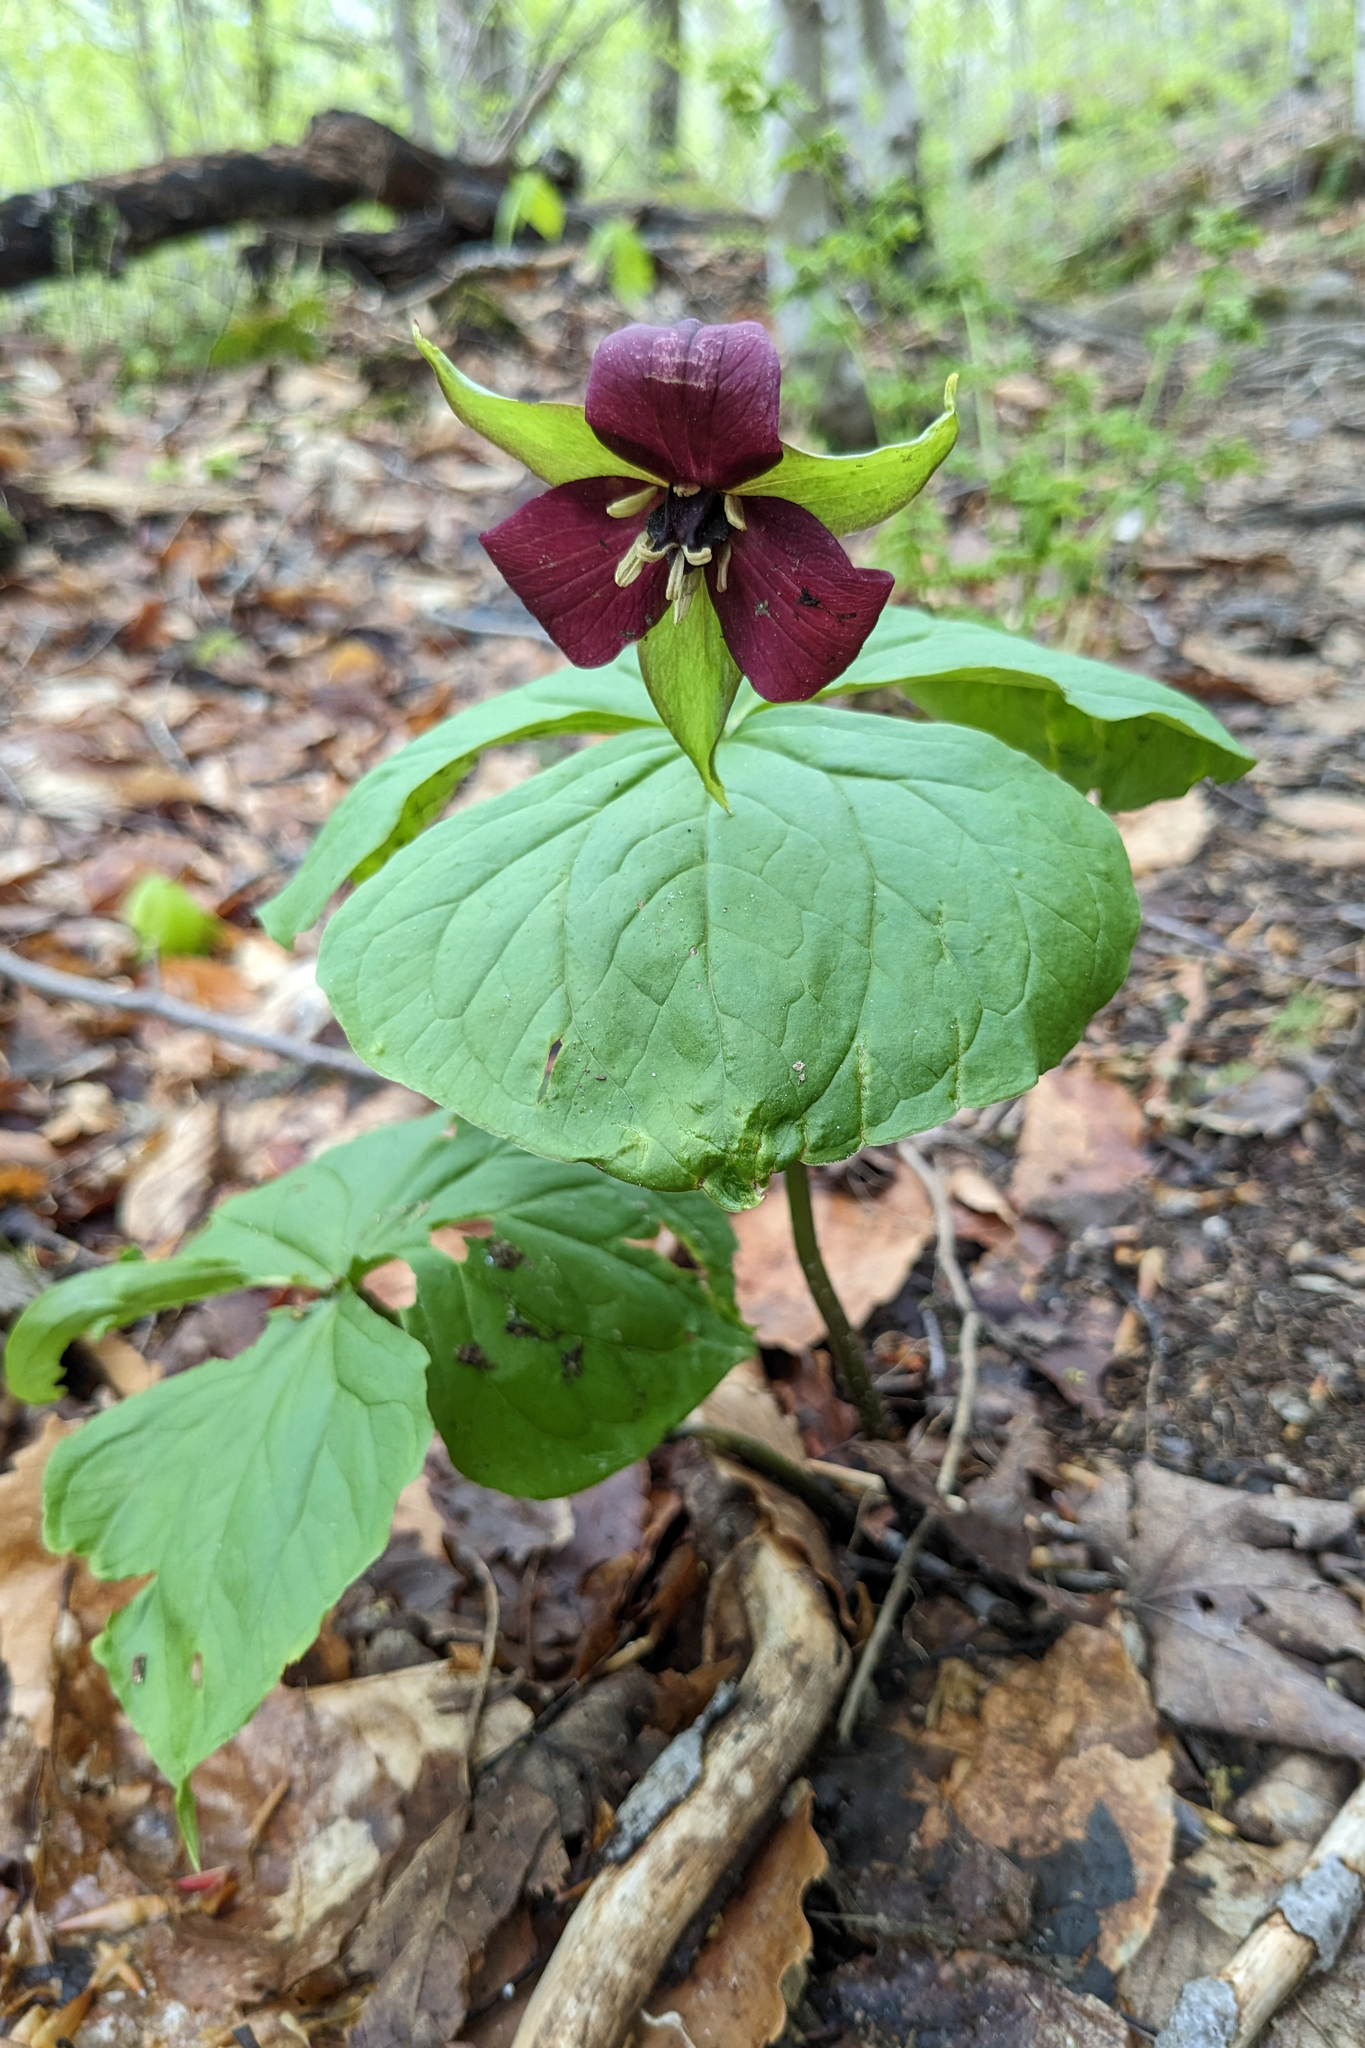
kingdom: Plantae
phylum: Tracheophyta
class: Liliopsida
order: Liliales
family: Melanthiaceae
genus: Trillium
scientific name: Trillium erectum
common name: Purple trillium
